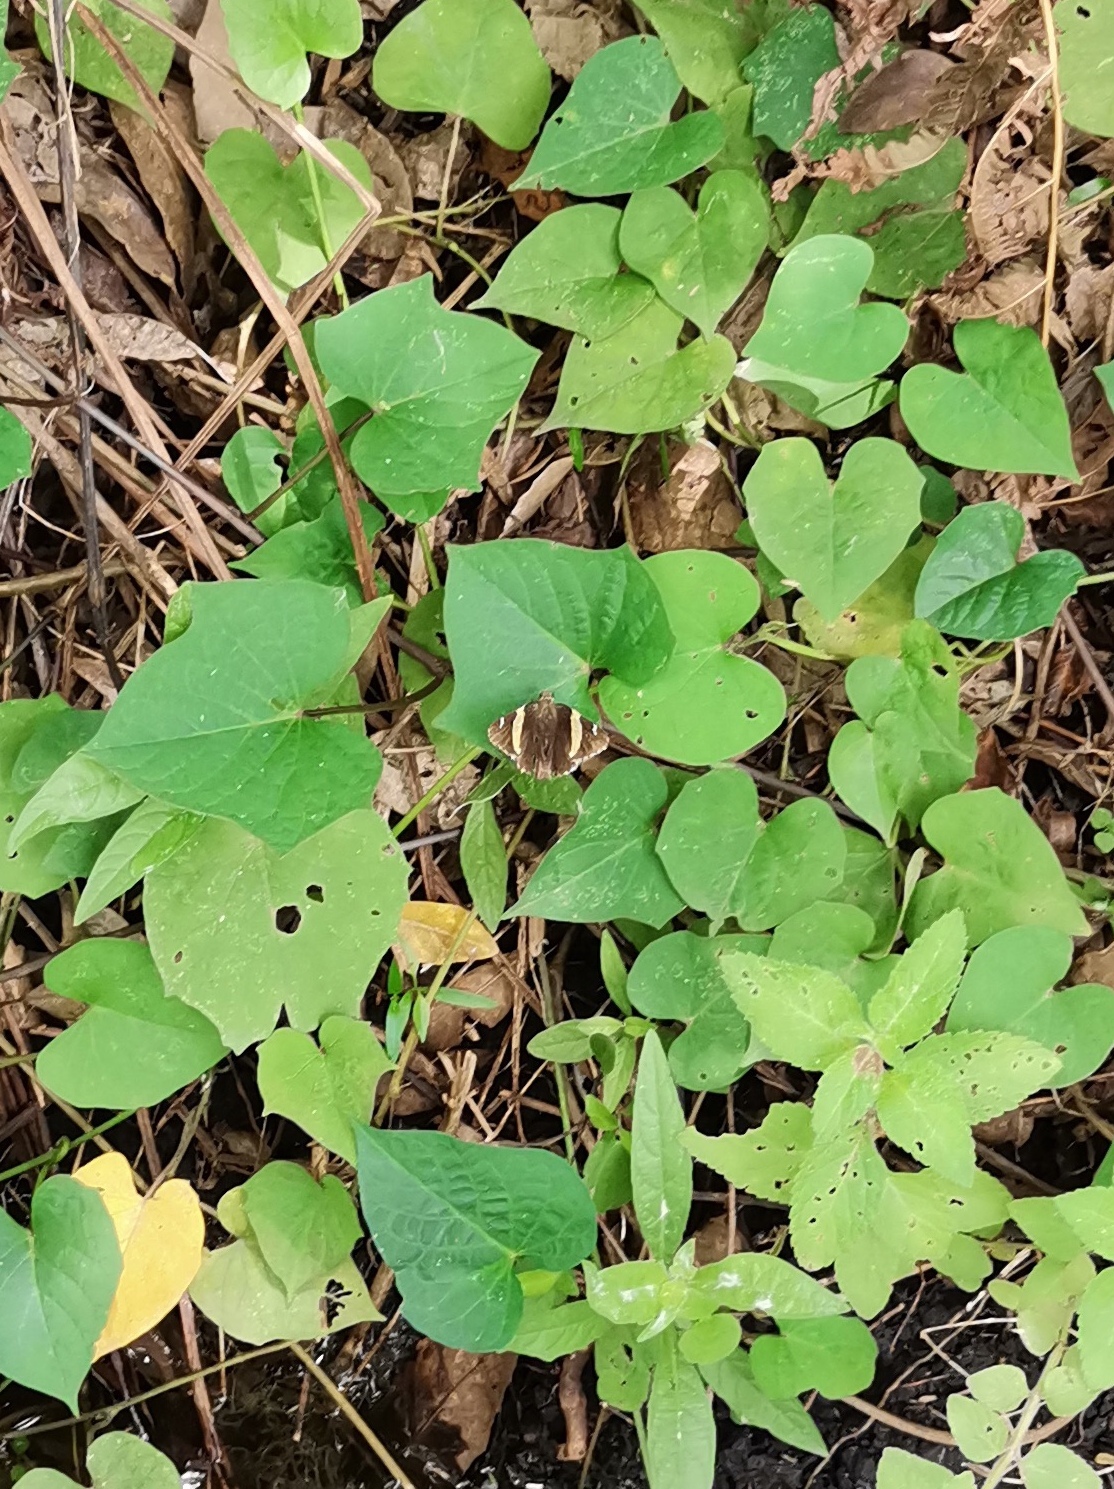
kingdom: Animalia
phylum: Arthropoda
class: Arachnida
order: Scorpiones
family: Bothriuridae
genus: Telegonus
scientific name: Telegonus cellus
